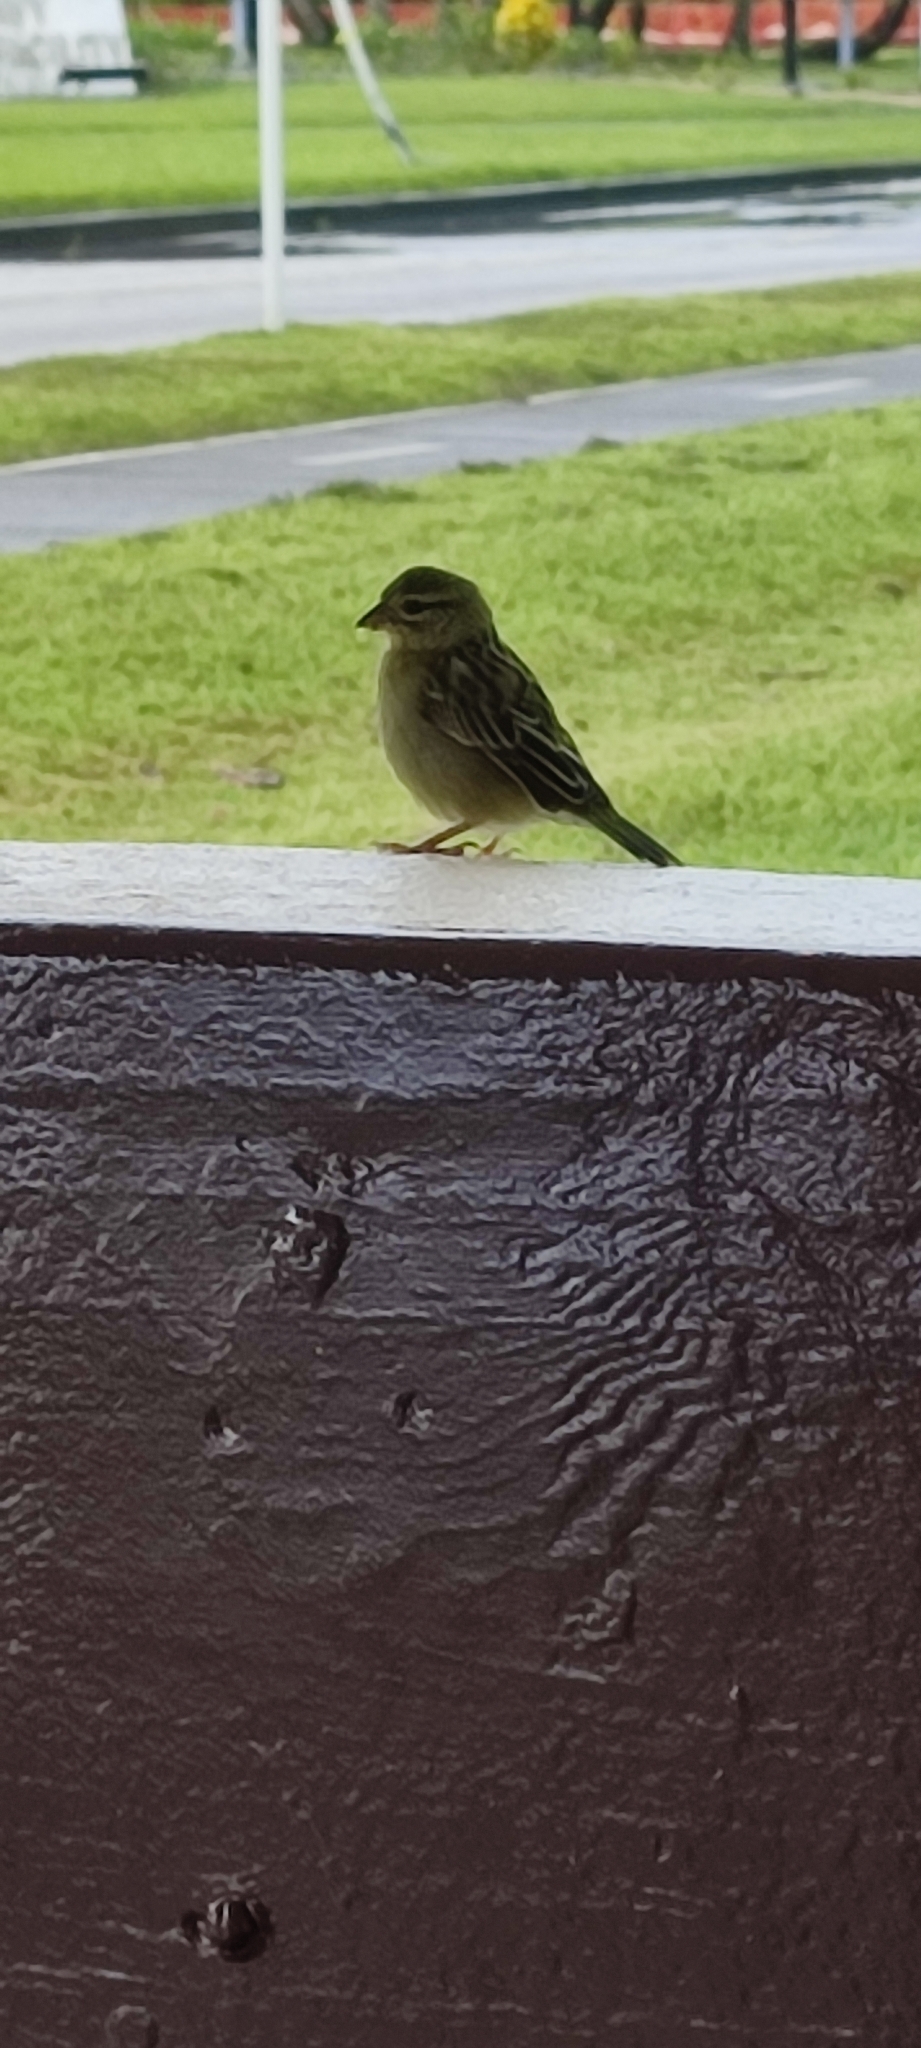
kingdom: Animalia
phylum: Chordata
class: Aves
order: Passeriformes
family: Ploceidae
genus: Foudia
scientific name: Foudia madagascariensis
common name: Red fody
